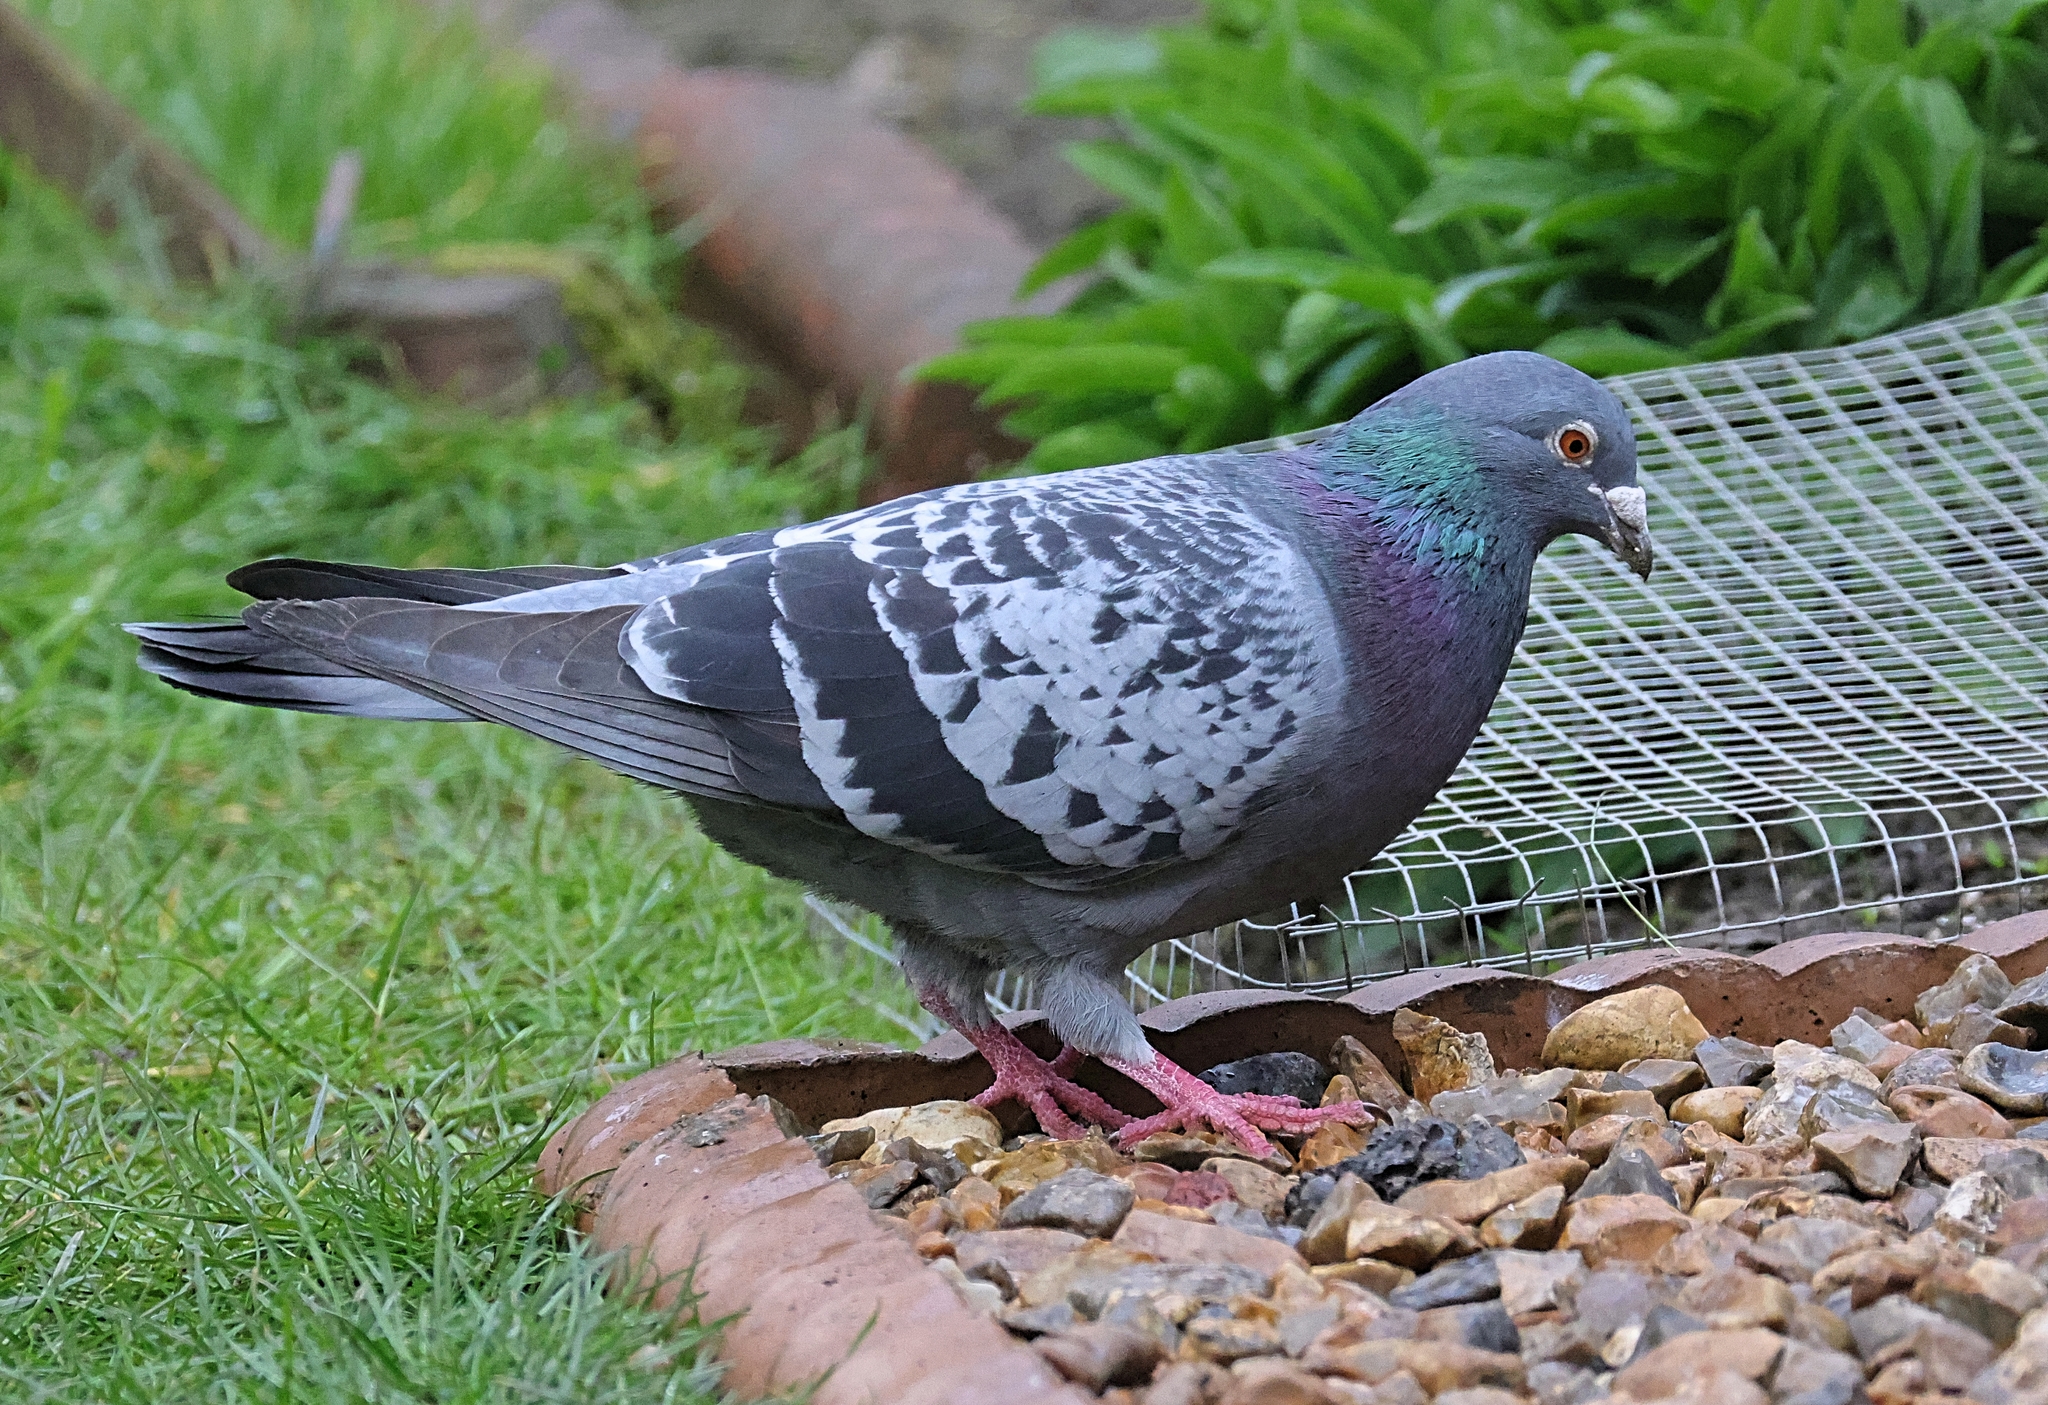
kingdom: Animalia
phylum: Chordata
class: Aves
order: Columbiformes
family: Columbidae
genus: Columba
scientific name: Columba livia
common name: Rock pigeon
